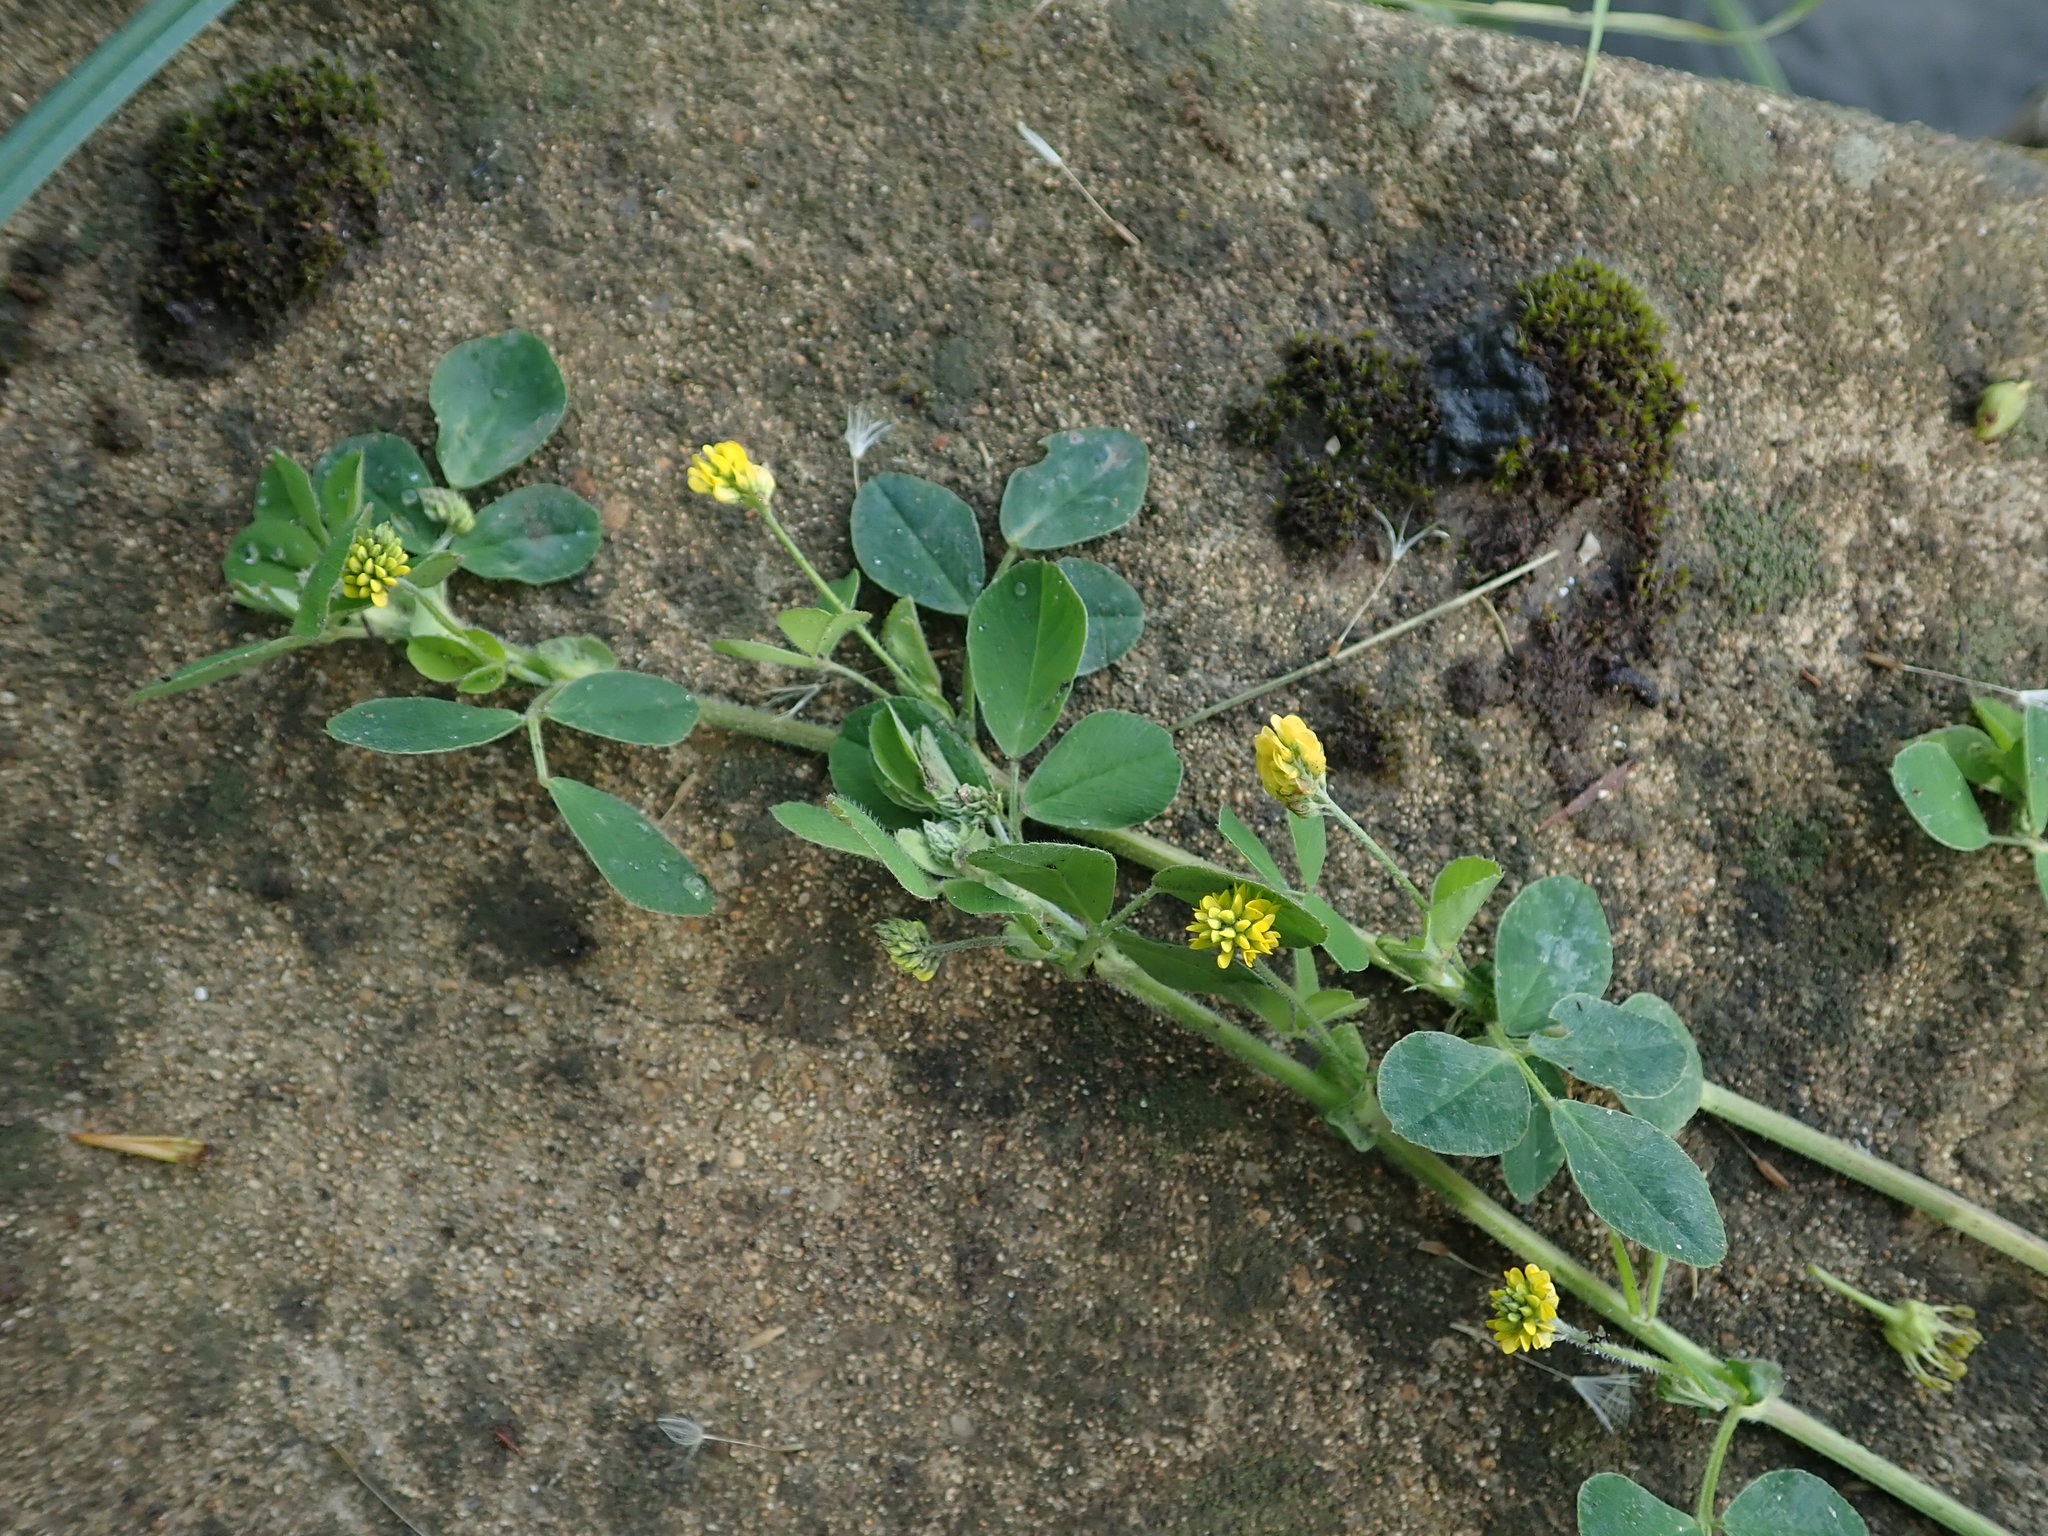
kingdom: Plantae
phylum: Tracheophyta
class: Magnoliopsida
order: Fabales
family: Fabaceae
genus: Medicago
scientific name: Medicago lupulina
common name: Black medick
